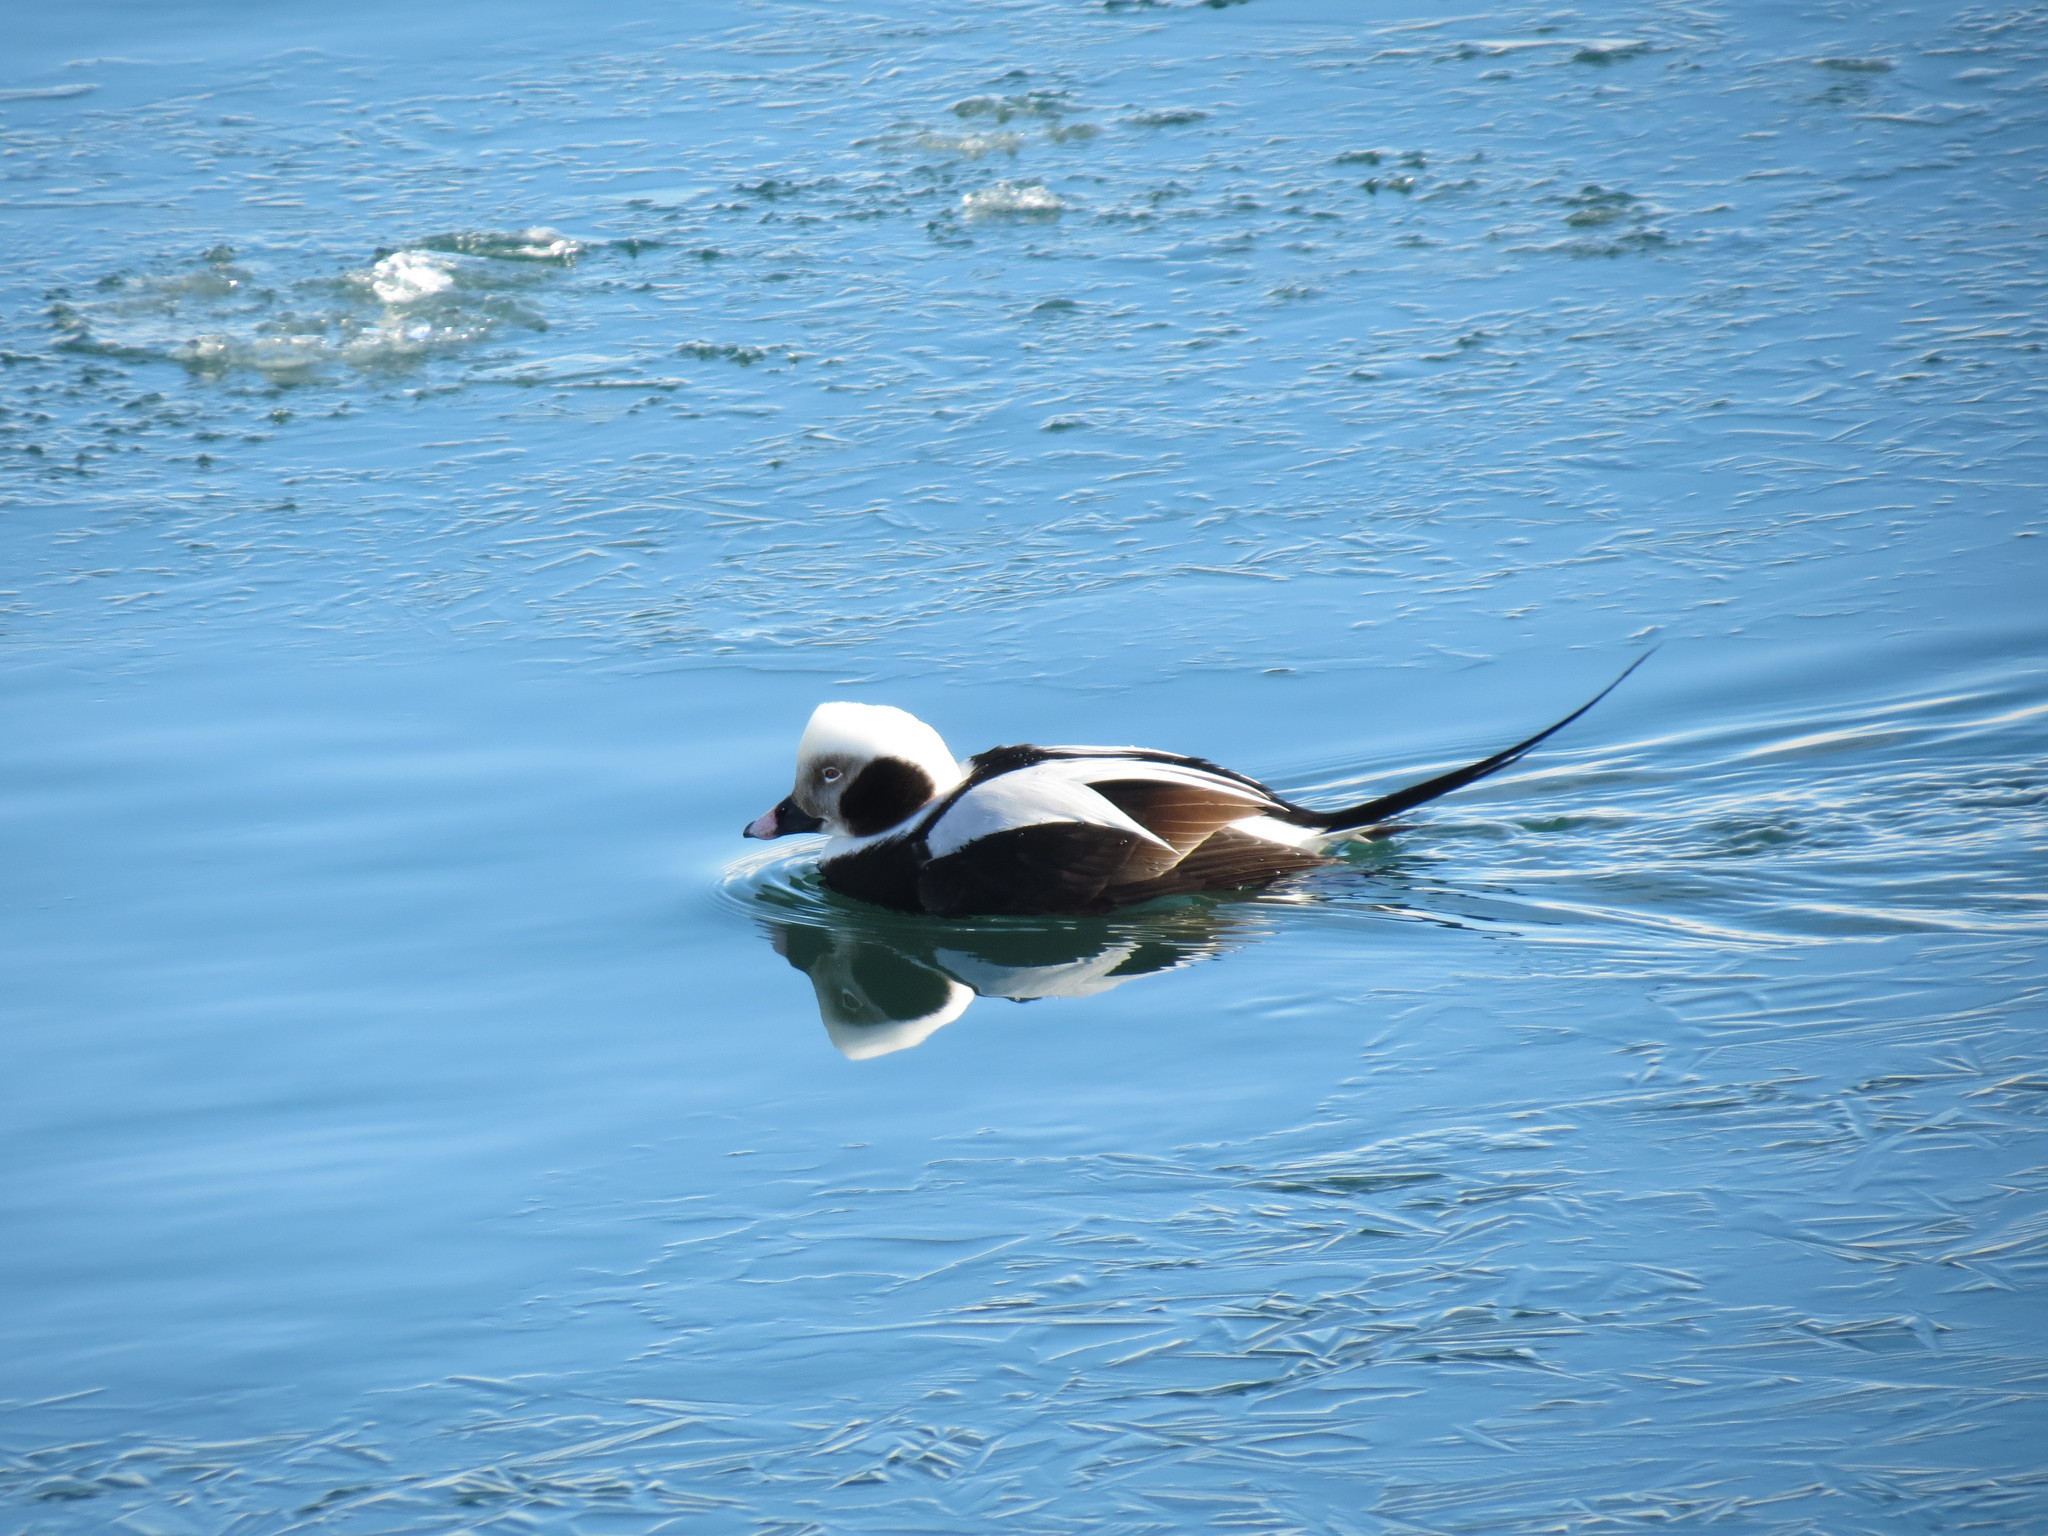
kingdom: Animalia
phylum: Chordata
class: Aves
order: Anseriformes
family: Anatidae
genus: Clangula
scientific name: Clangula hyemalis
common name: Long-tailed duck
